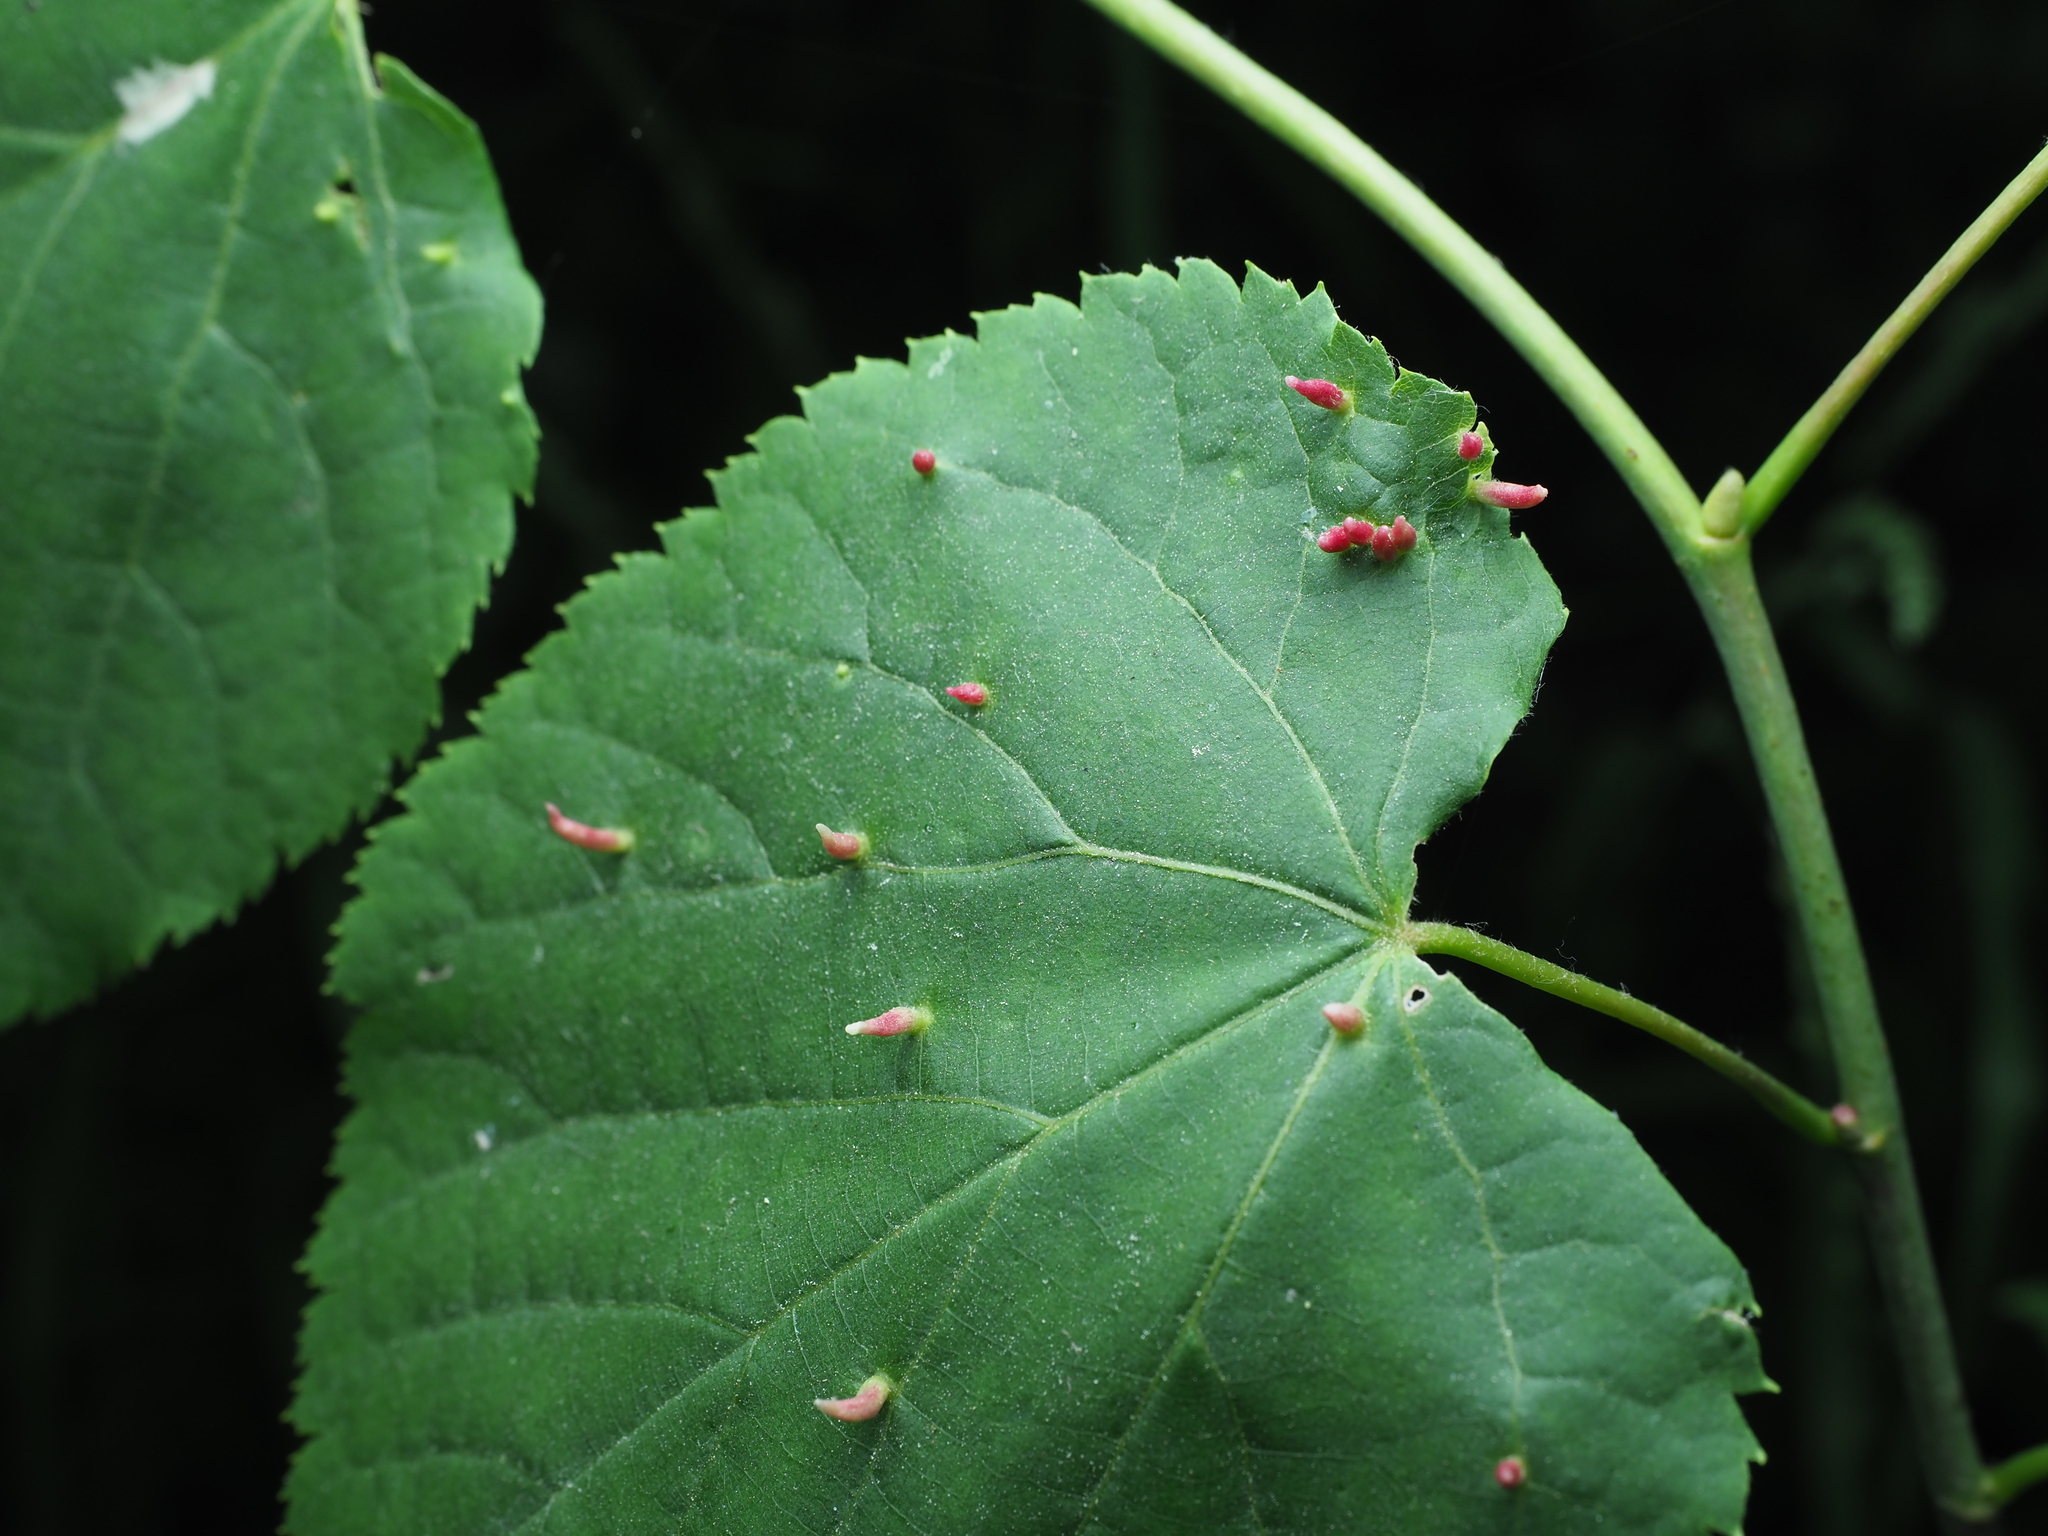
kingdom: Animalia
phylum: Arthropoda
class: Arachnida
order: Trombidiformes
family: Eriophyidae
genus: Eriophyes
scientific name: Eriophyes tiliae
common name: Red nail gall mite
